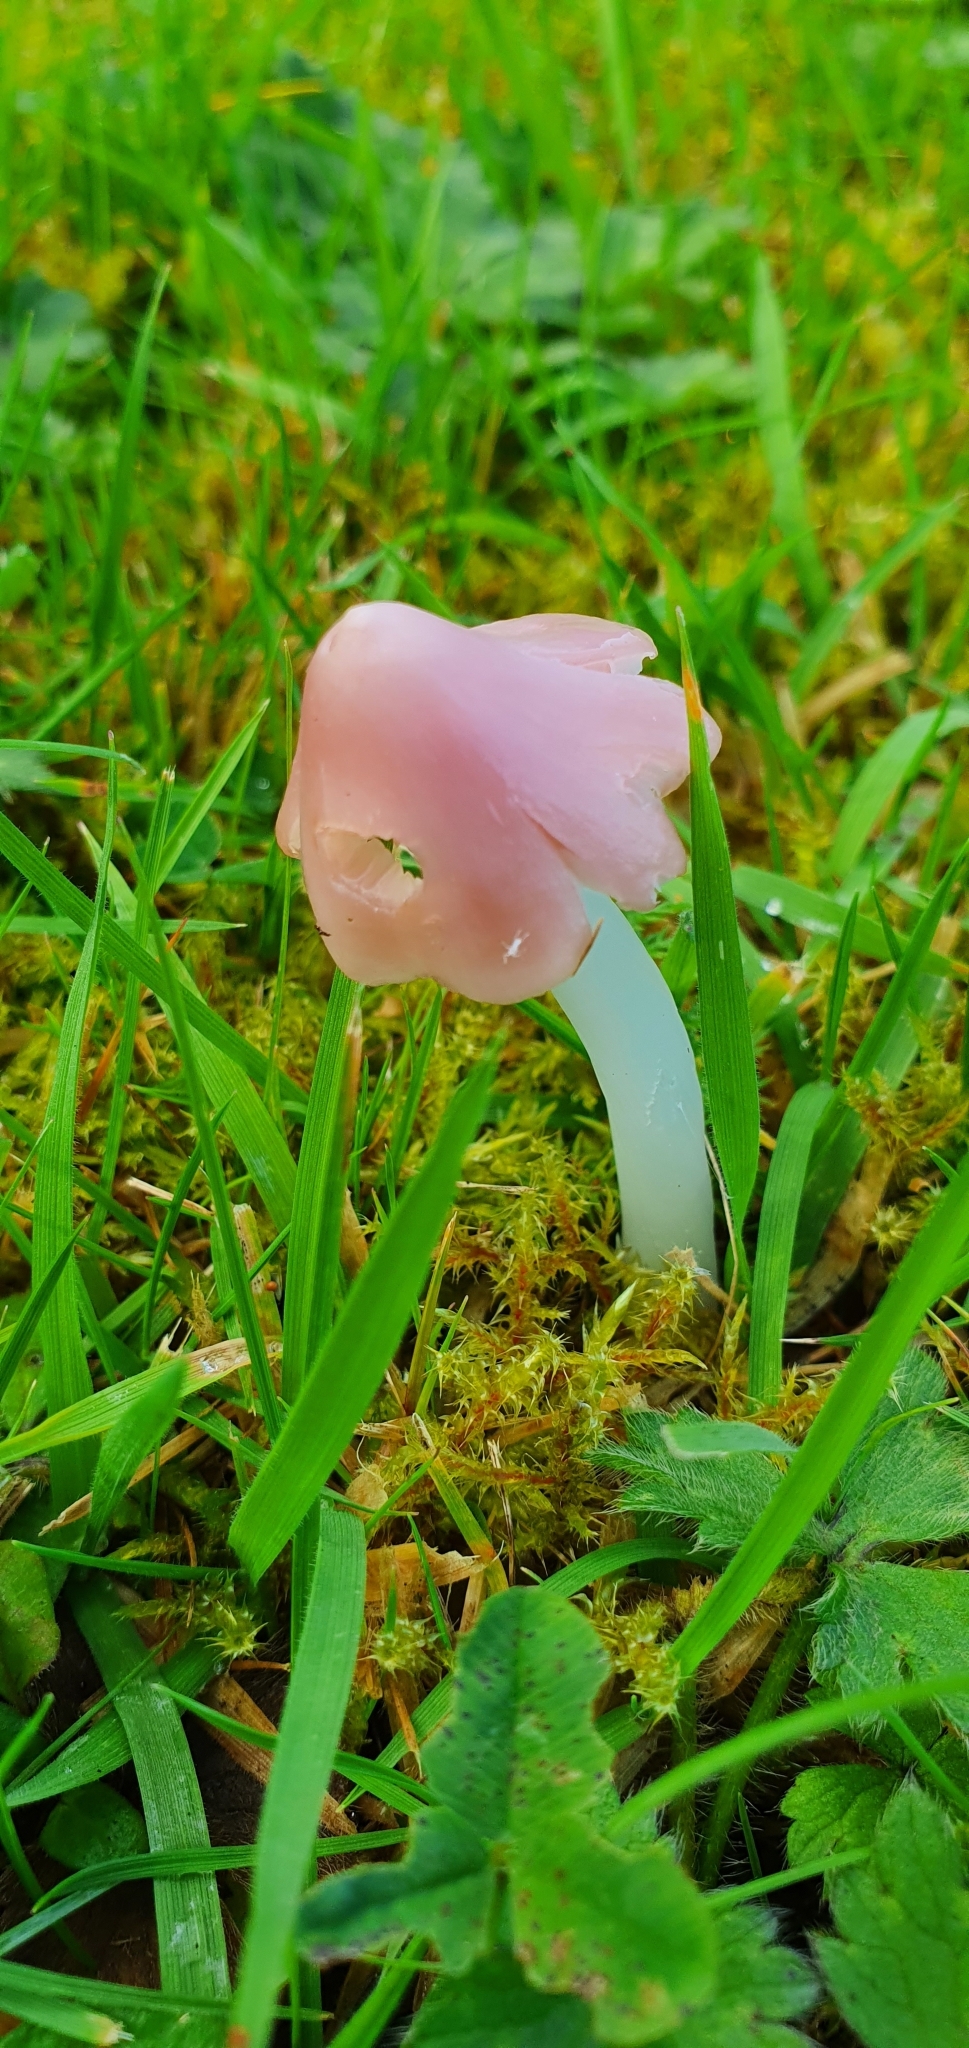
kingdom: Fungi
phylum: Basidiomycota
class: Agaricomycetes
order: Agaricales
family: Hygrophoraceae
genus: Porpolomopsis
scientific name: Porpolomopsis calyptriformis
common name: Pink waxcap
